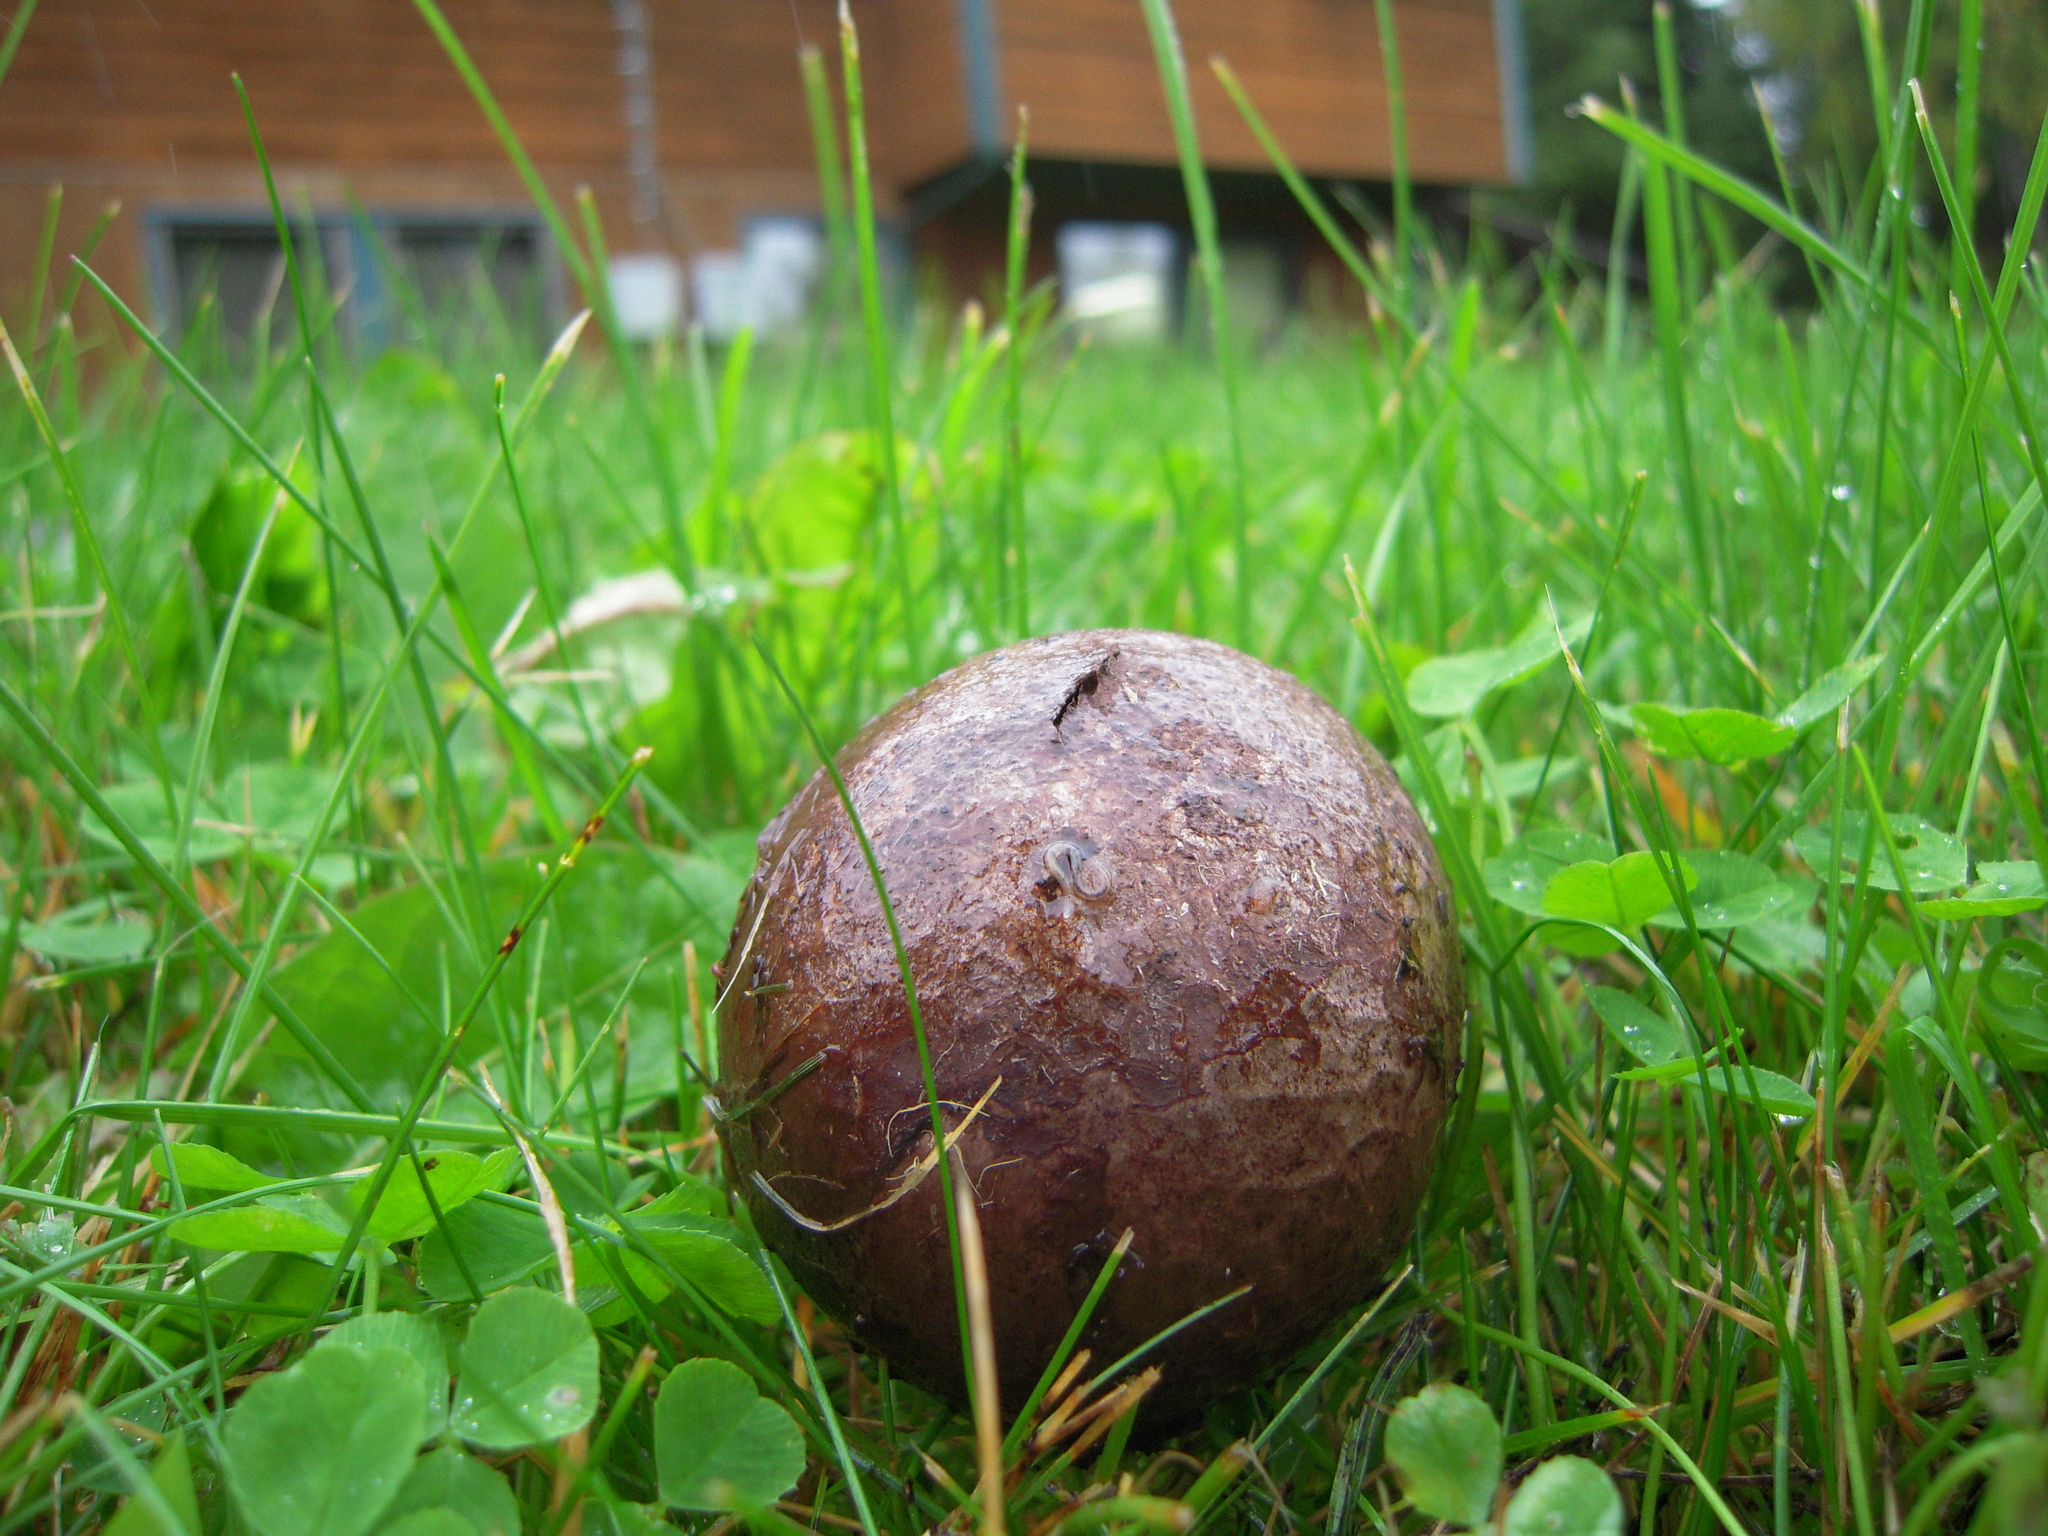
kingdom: Fungi
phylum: Basidiomycota
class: Agaricomycetes
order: Agaricales
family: Lycoperdaceae
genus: Bovista
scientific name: Bovista plumbea
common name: Grey puffball
